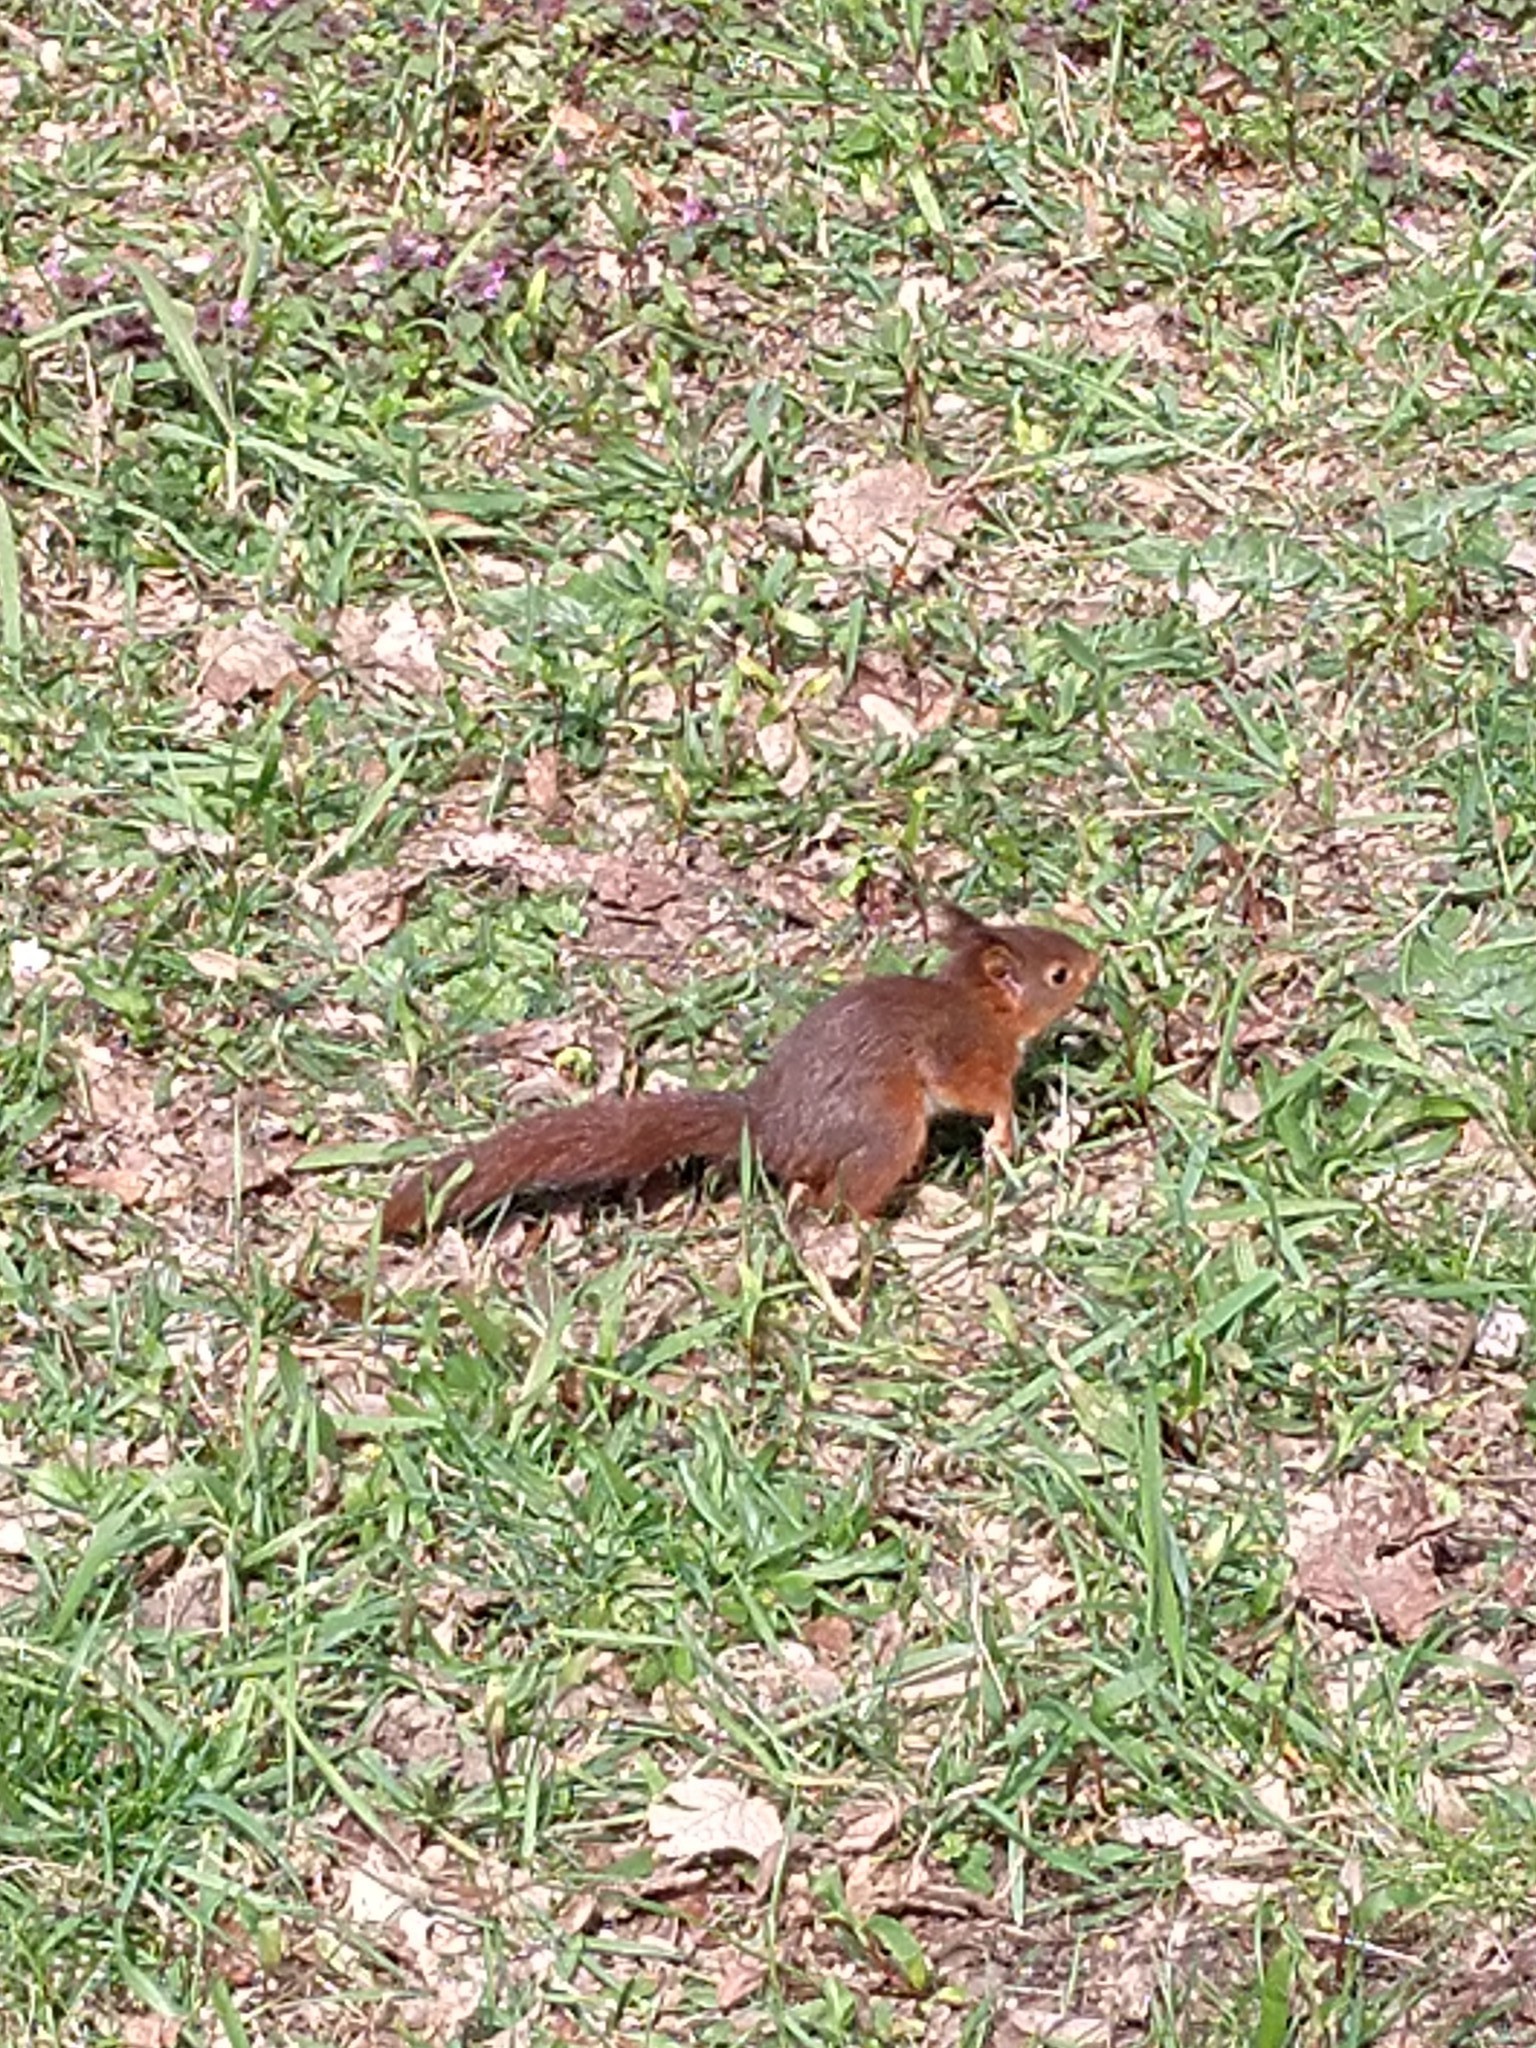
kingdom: Animalia
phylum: Chordata
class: Mammalia
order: Rodentia
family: Sciuridae
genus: Sciurus
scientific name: Sciurus vulgaris
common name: Eurasian red squirrel
